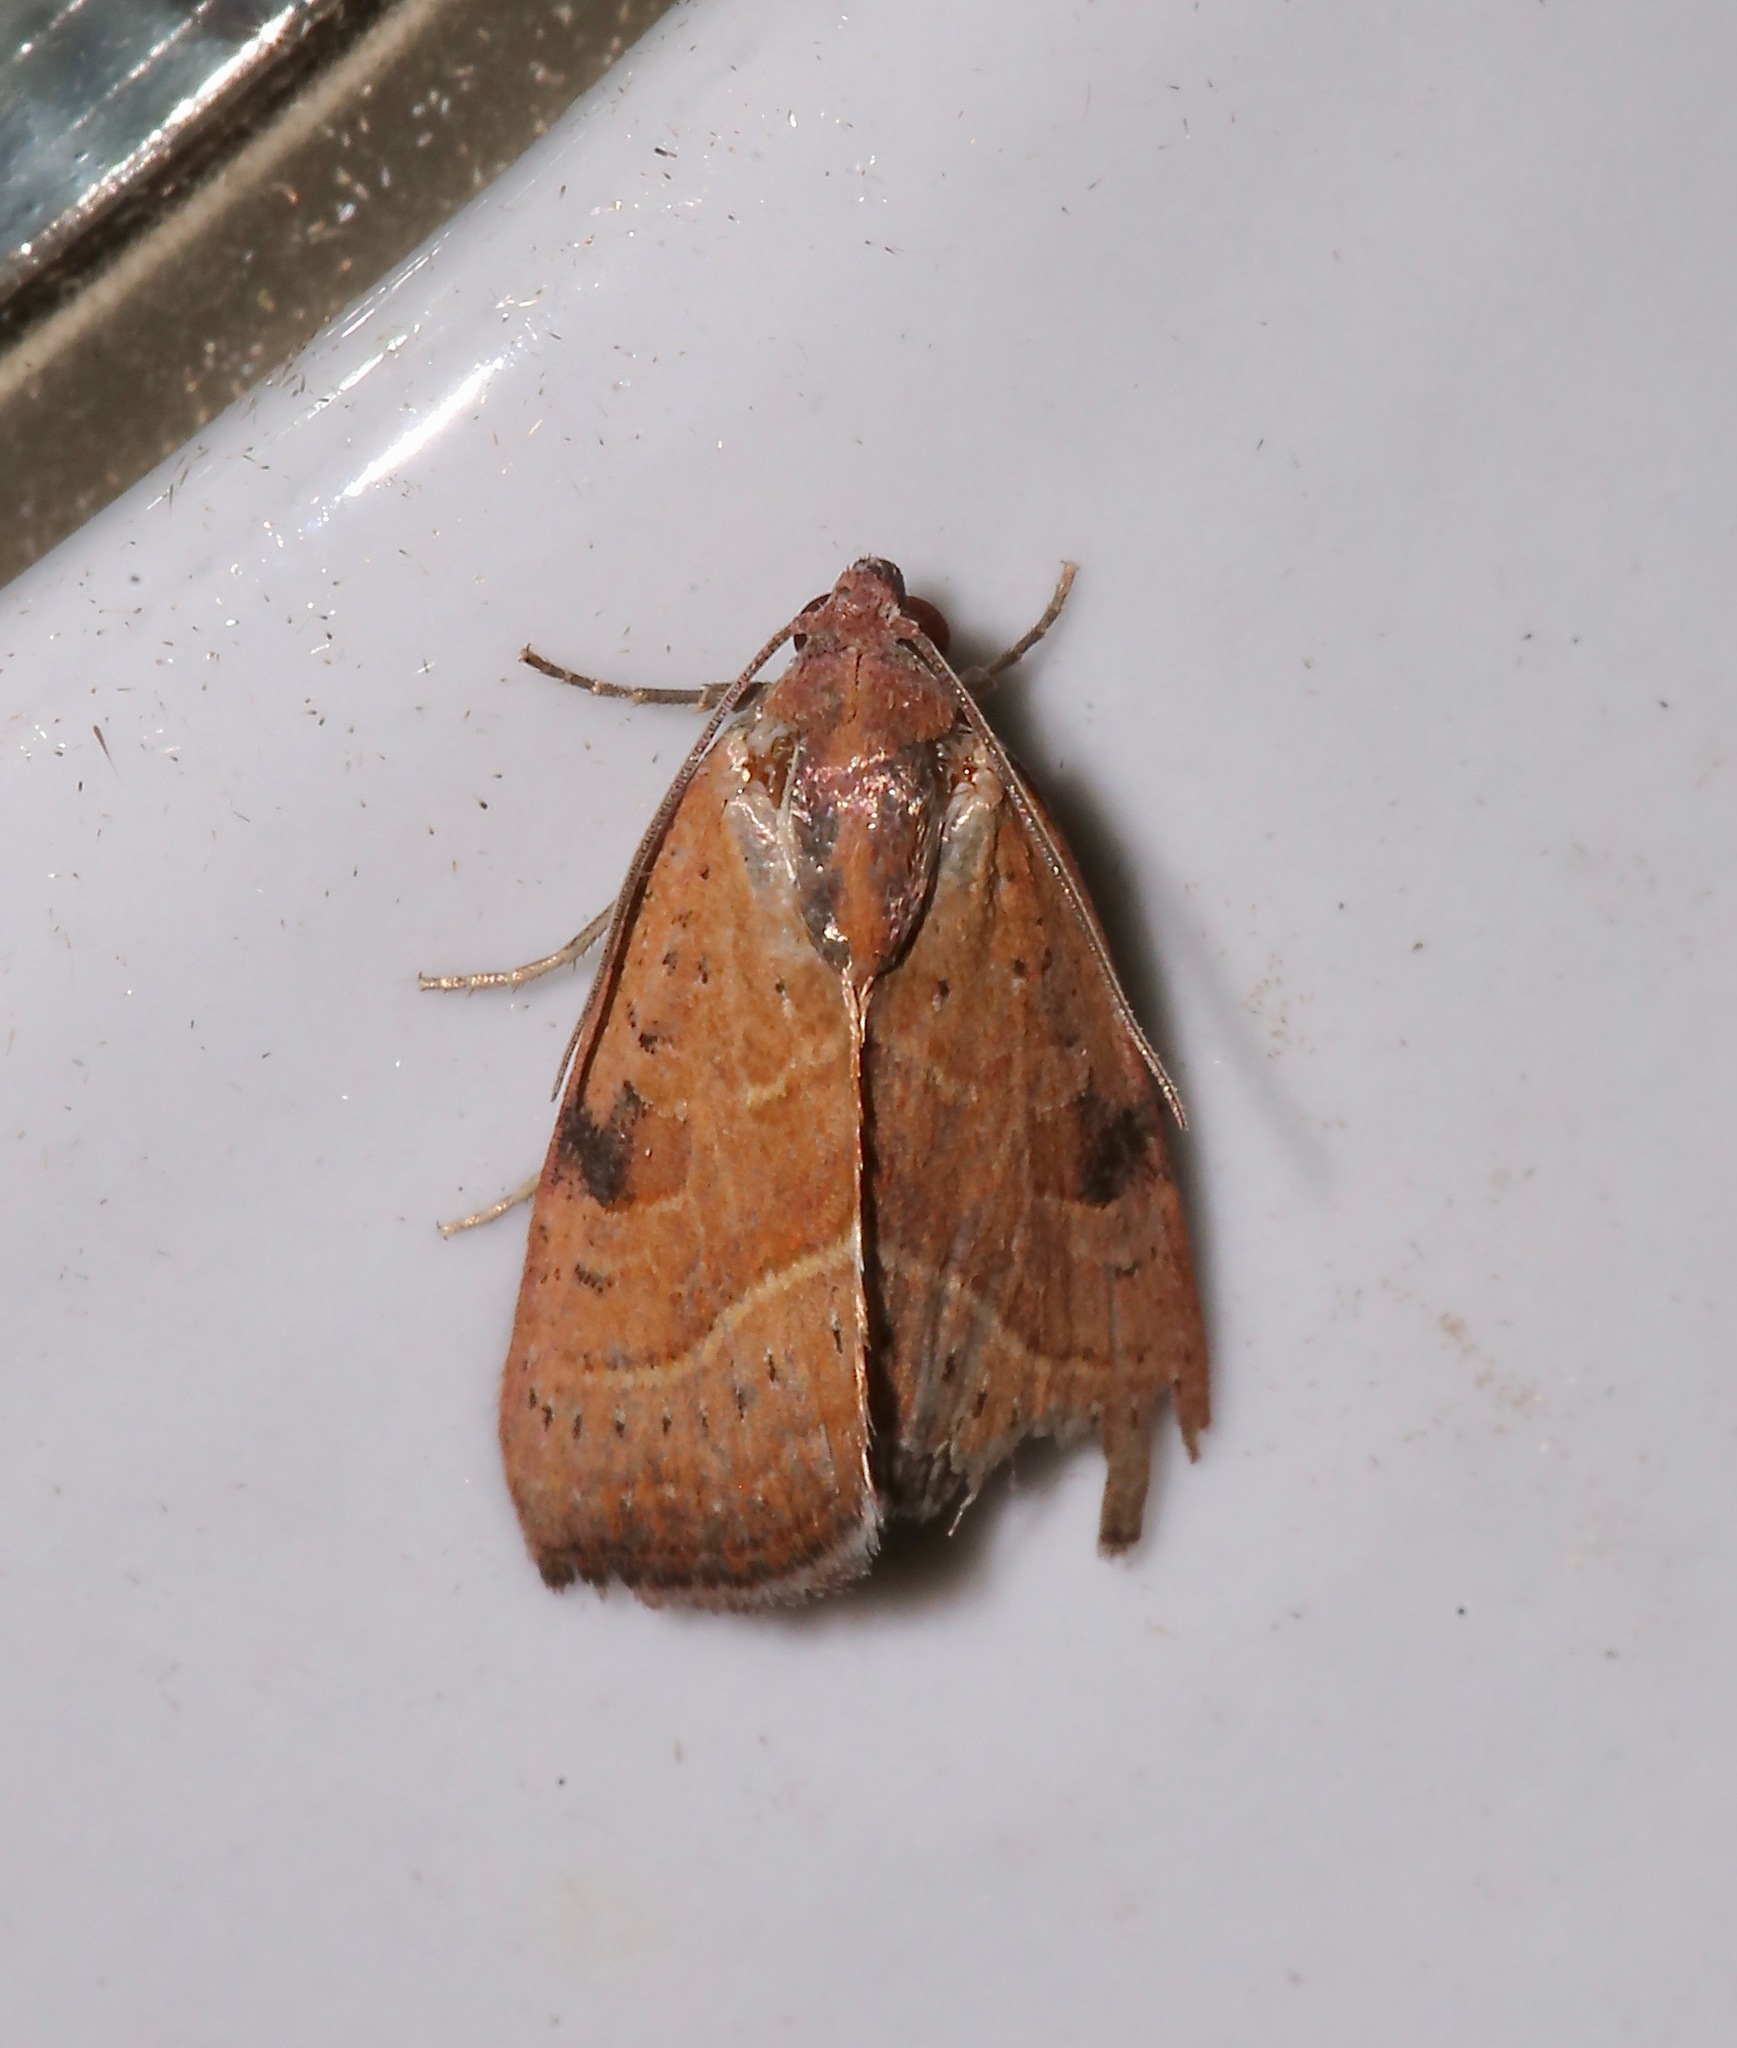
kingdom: Animalia
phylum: Arthropoda
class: Insecta
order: Lepidoptera
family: Noctuidae
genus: Galgula
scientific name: Galgula partita
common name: Wedgeling
